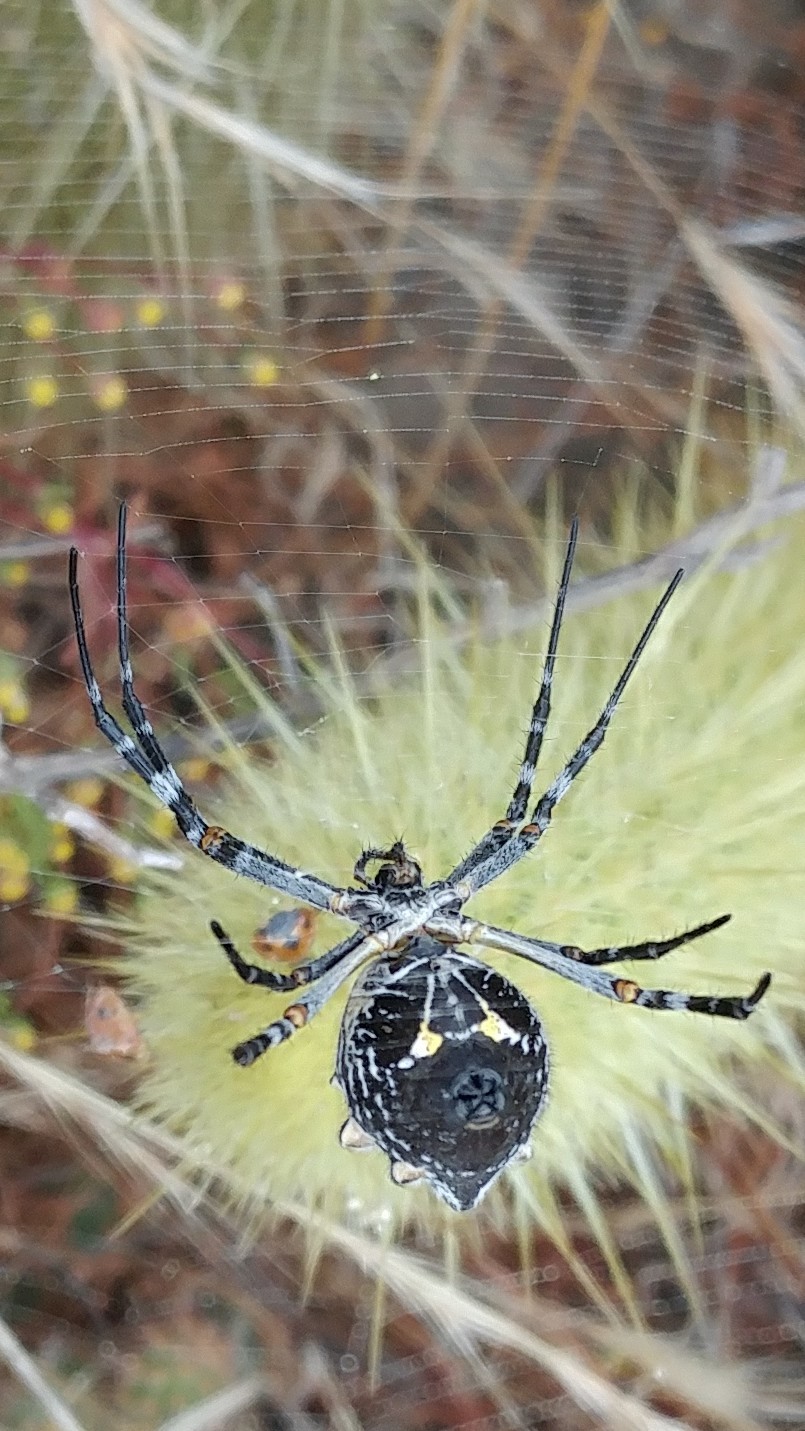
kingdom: Animalia
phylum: Arthropoda
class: Arachnida
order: Araneae
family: Araneidae
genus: Argiope
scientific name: Argiope argentata
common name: Orb weavers
